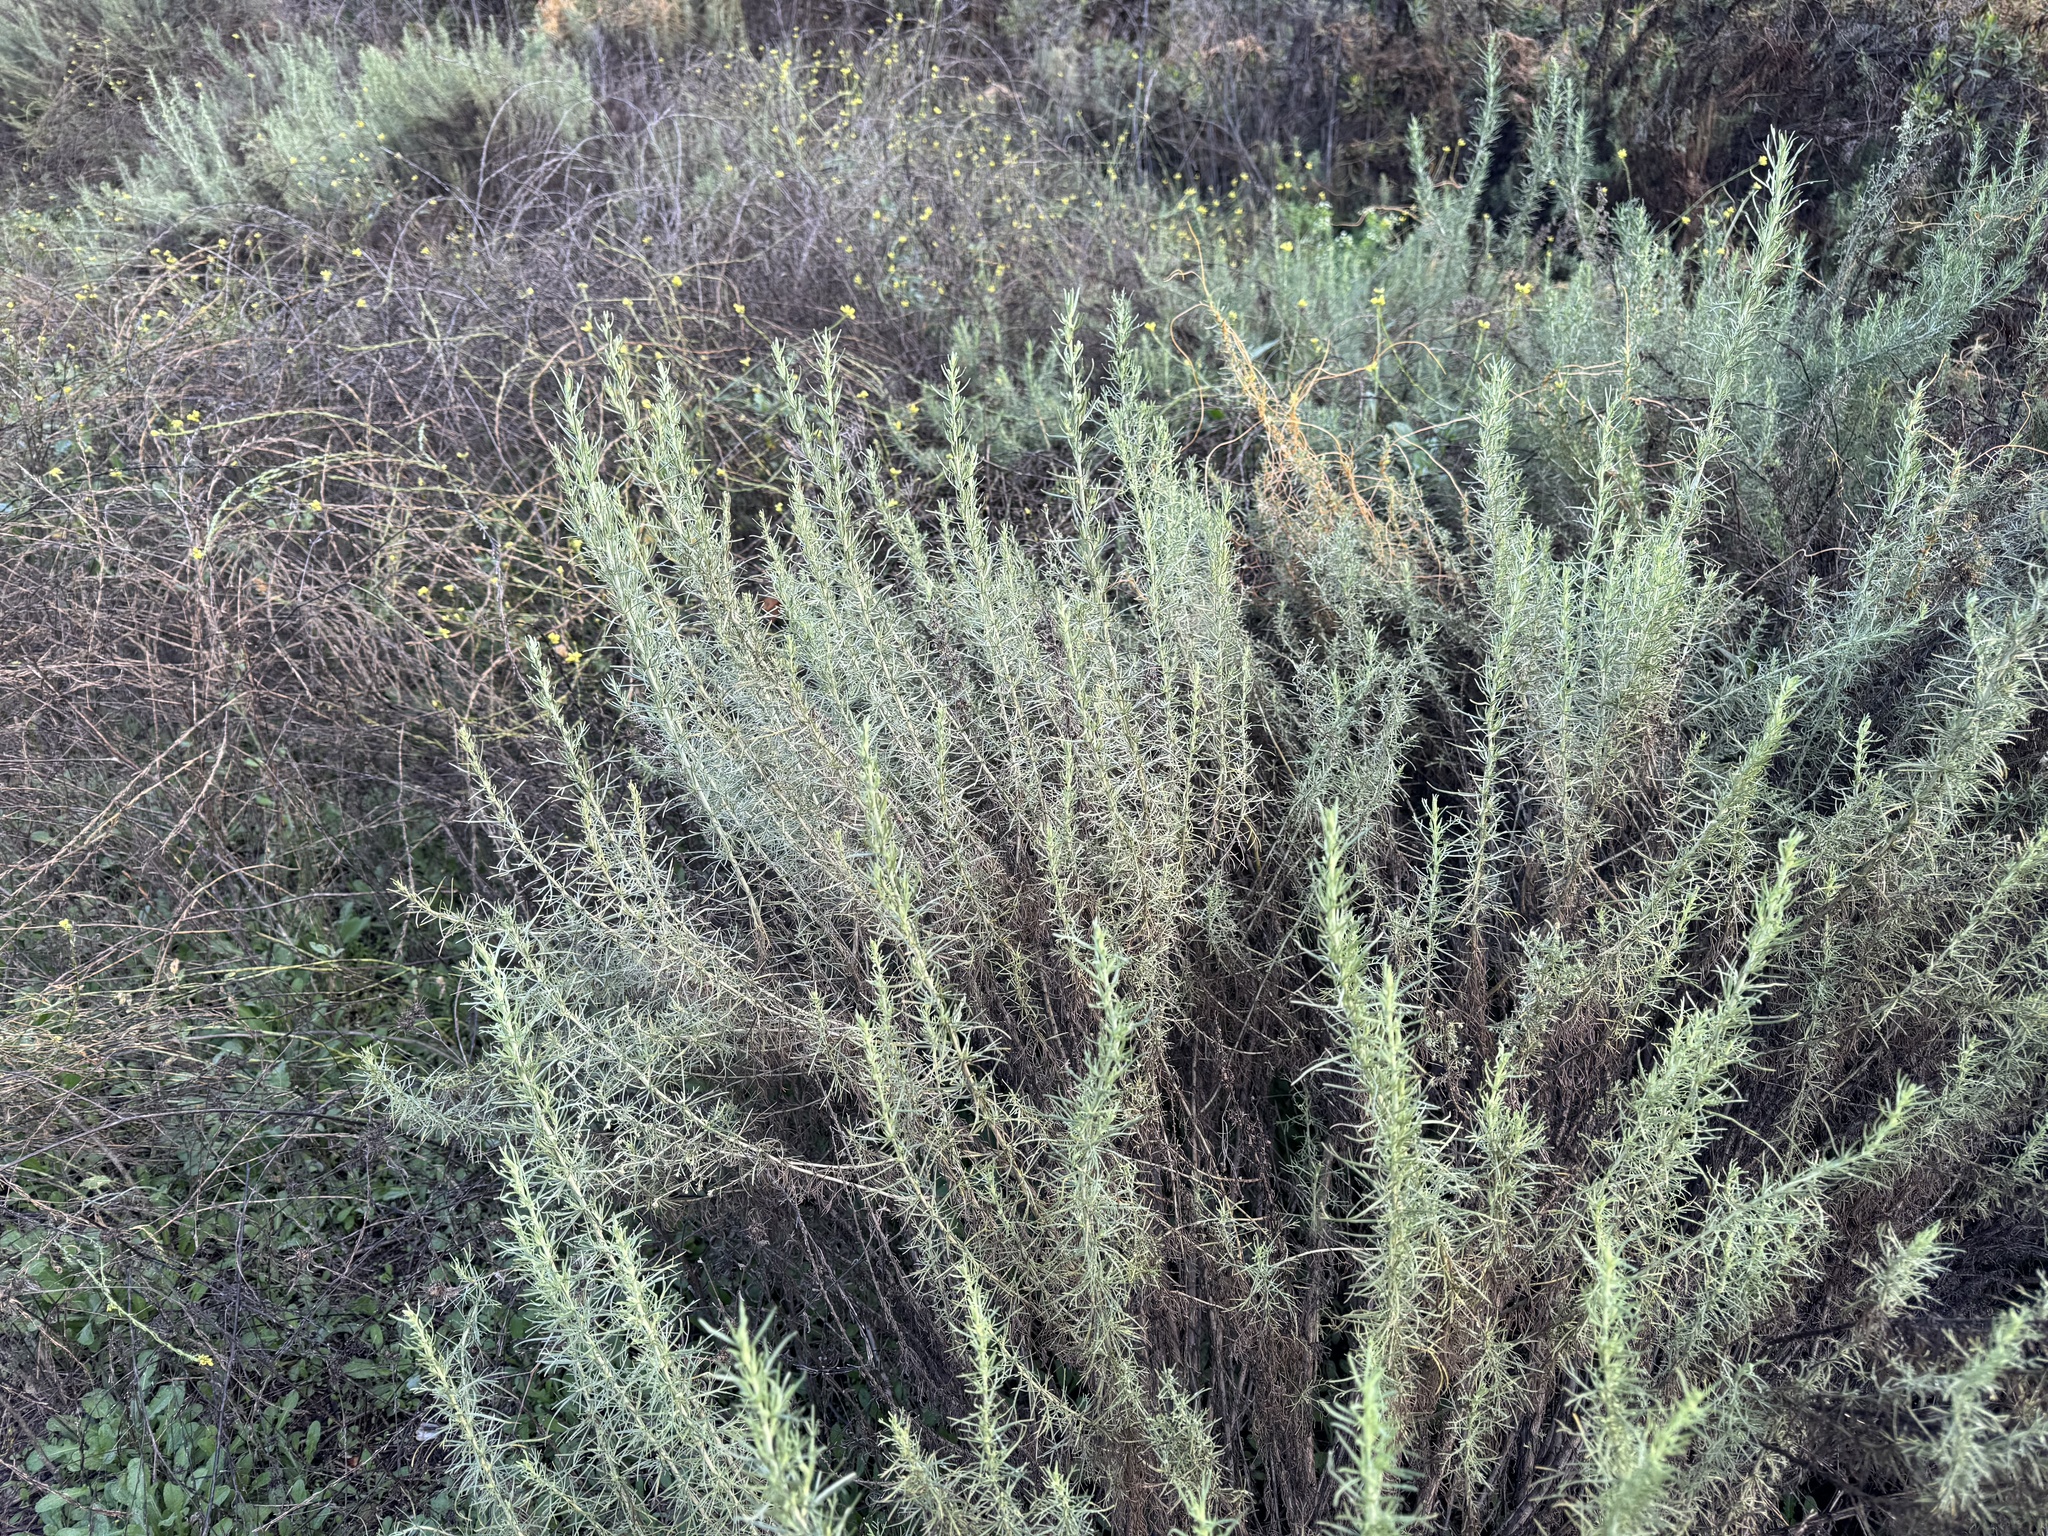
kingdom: Plantae
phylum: Tracheophyta
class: Magnoliopsida
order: Asterales
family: Asteraceae
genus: Artemisia
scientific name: Artemisia californica
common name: California sagebrush
